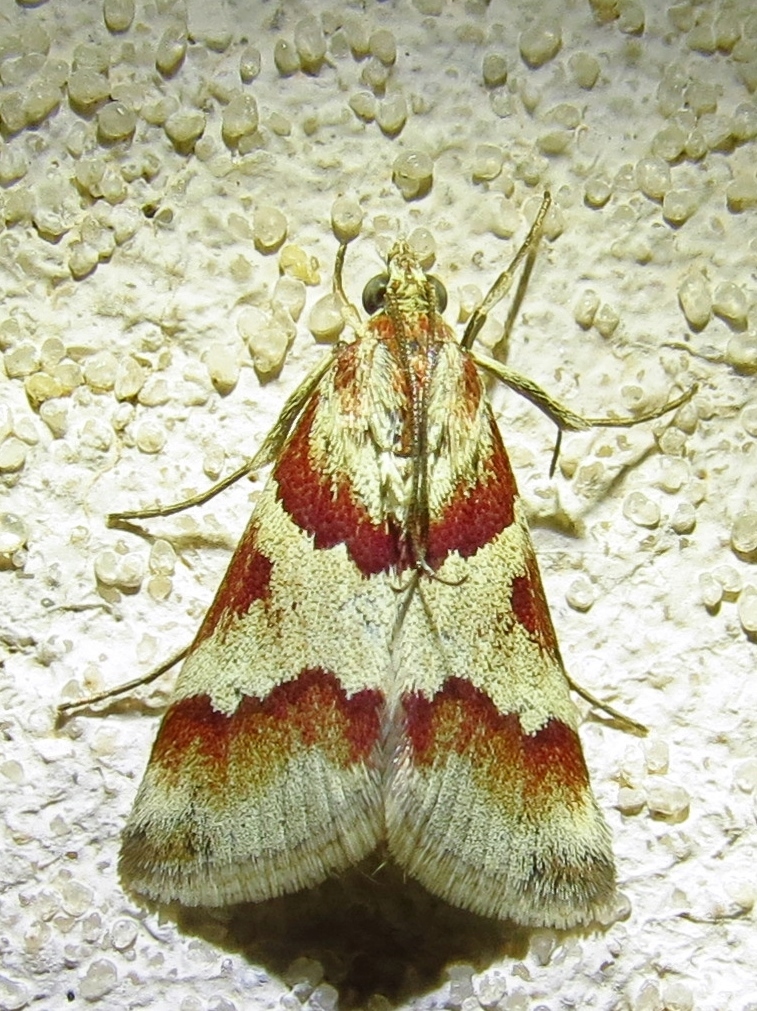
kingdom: Animalia
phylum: Arthropoda
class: Insecta
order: Lepidoptera
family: Crambidae
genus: Noctuelia
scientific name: Noctuelia Mimoschinia rufofascialis
